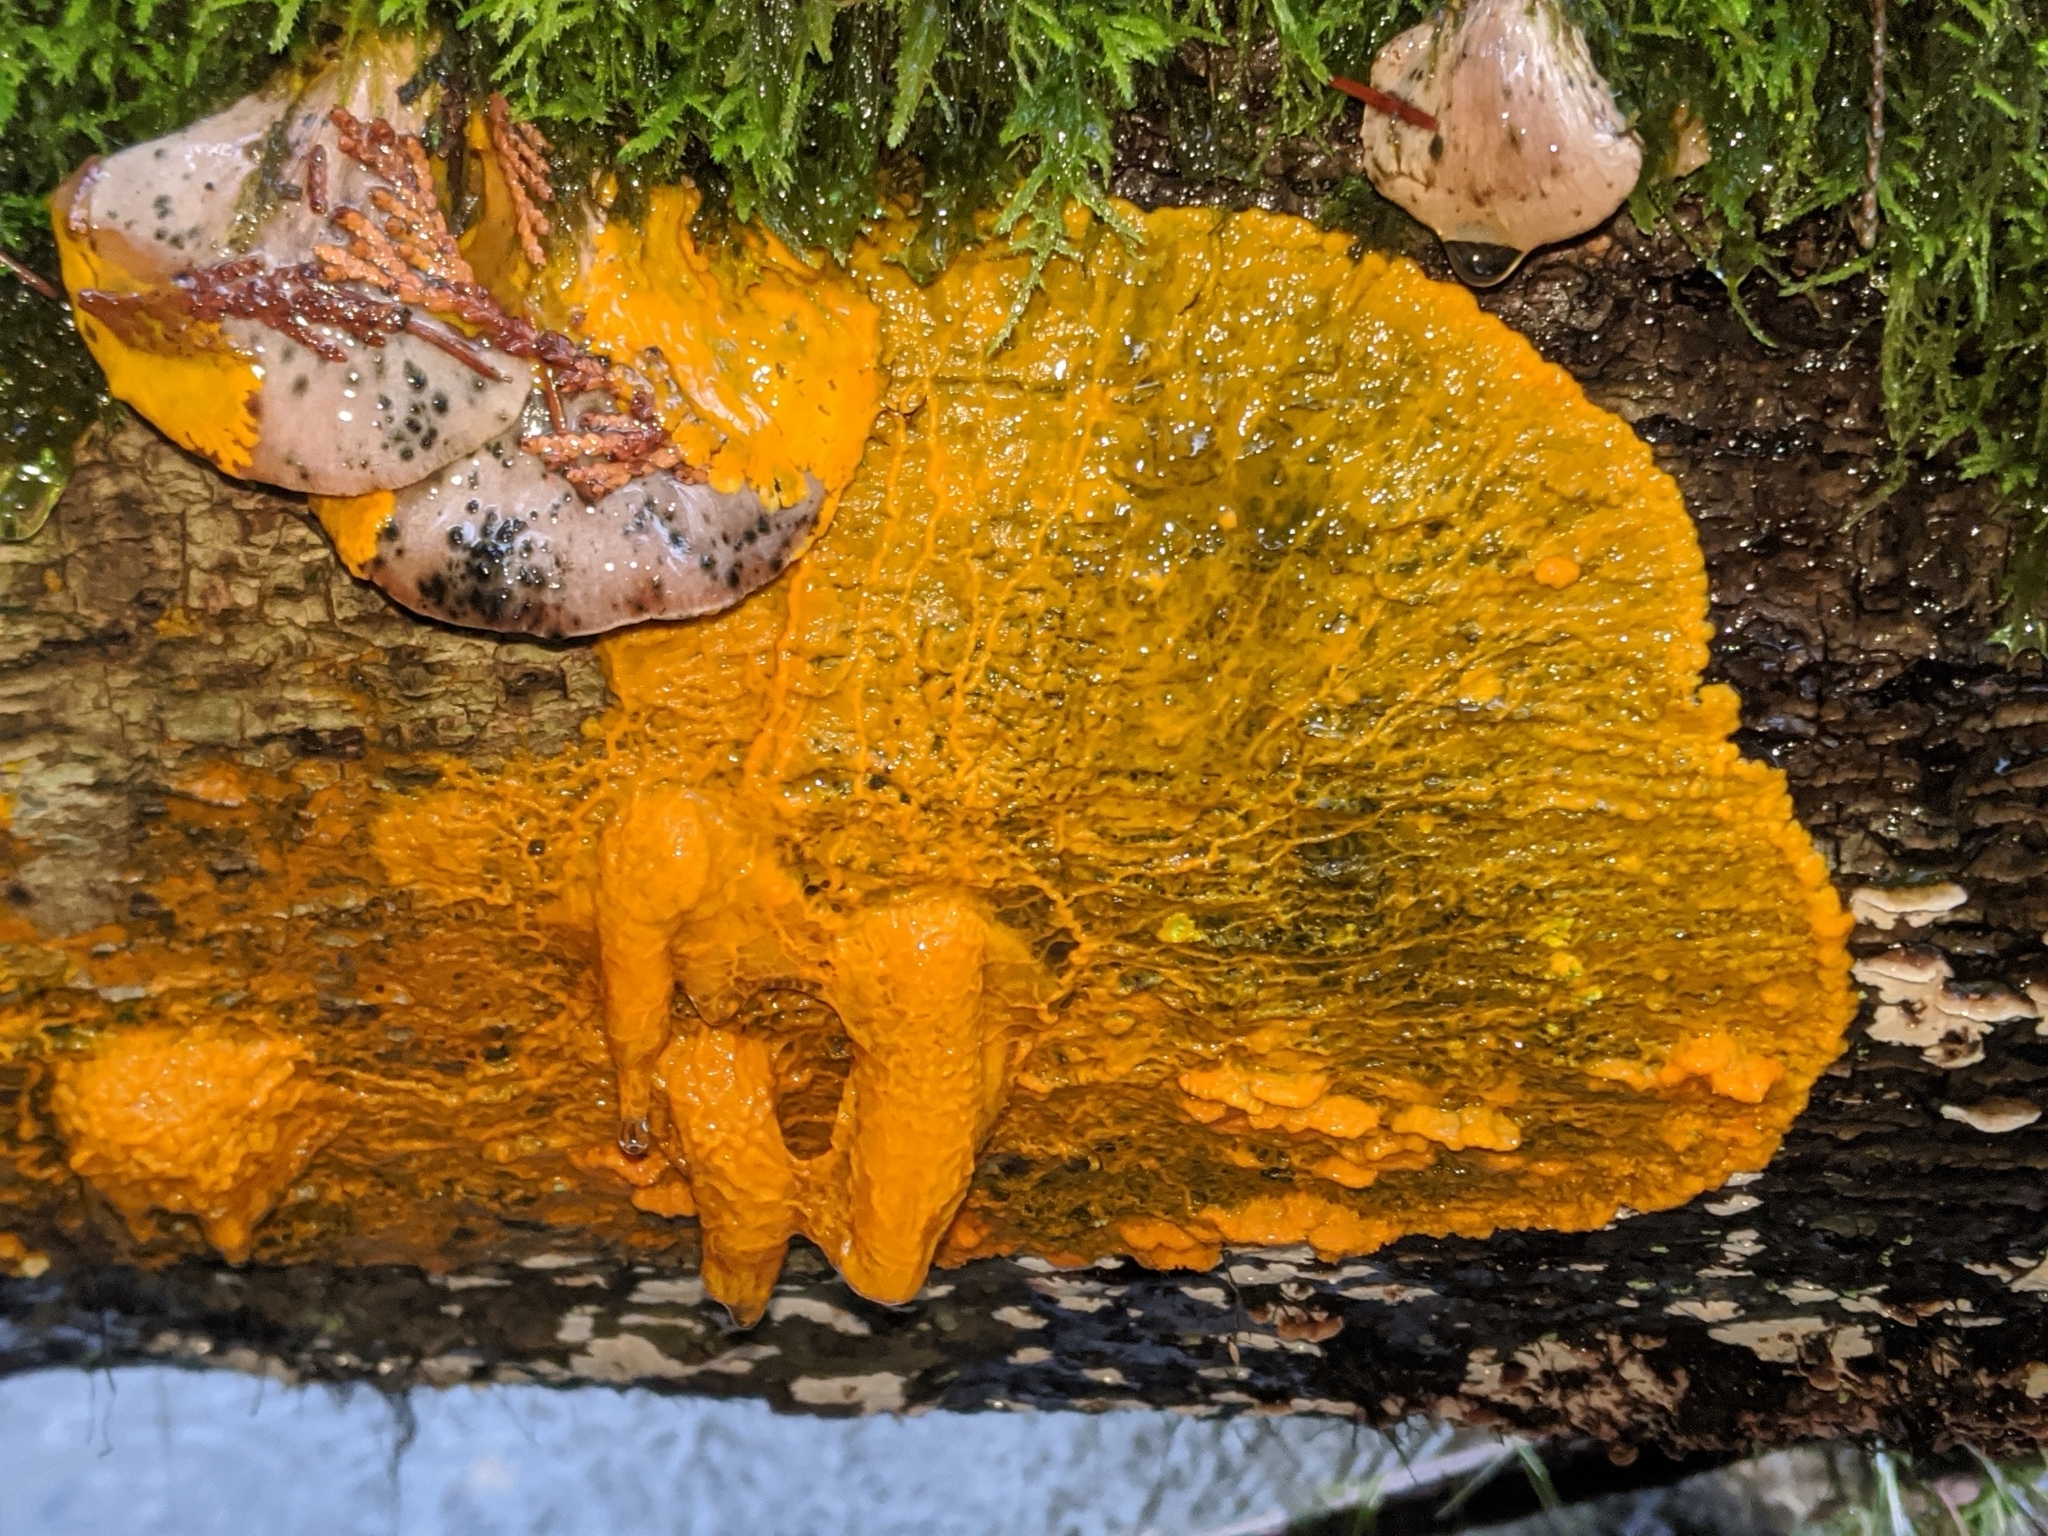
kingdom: Protozoa
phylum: Mycetozoa
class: Myxomycetes
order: Physarales
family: Physaraceae
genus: Badhamia
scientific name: Badhamia utricularis
